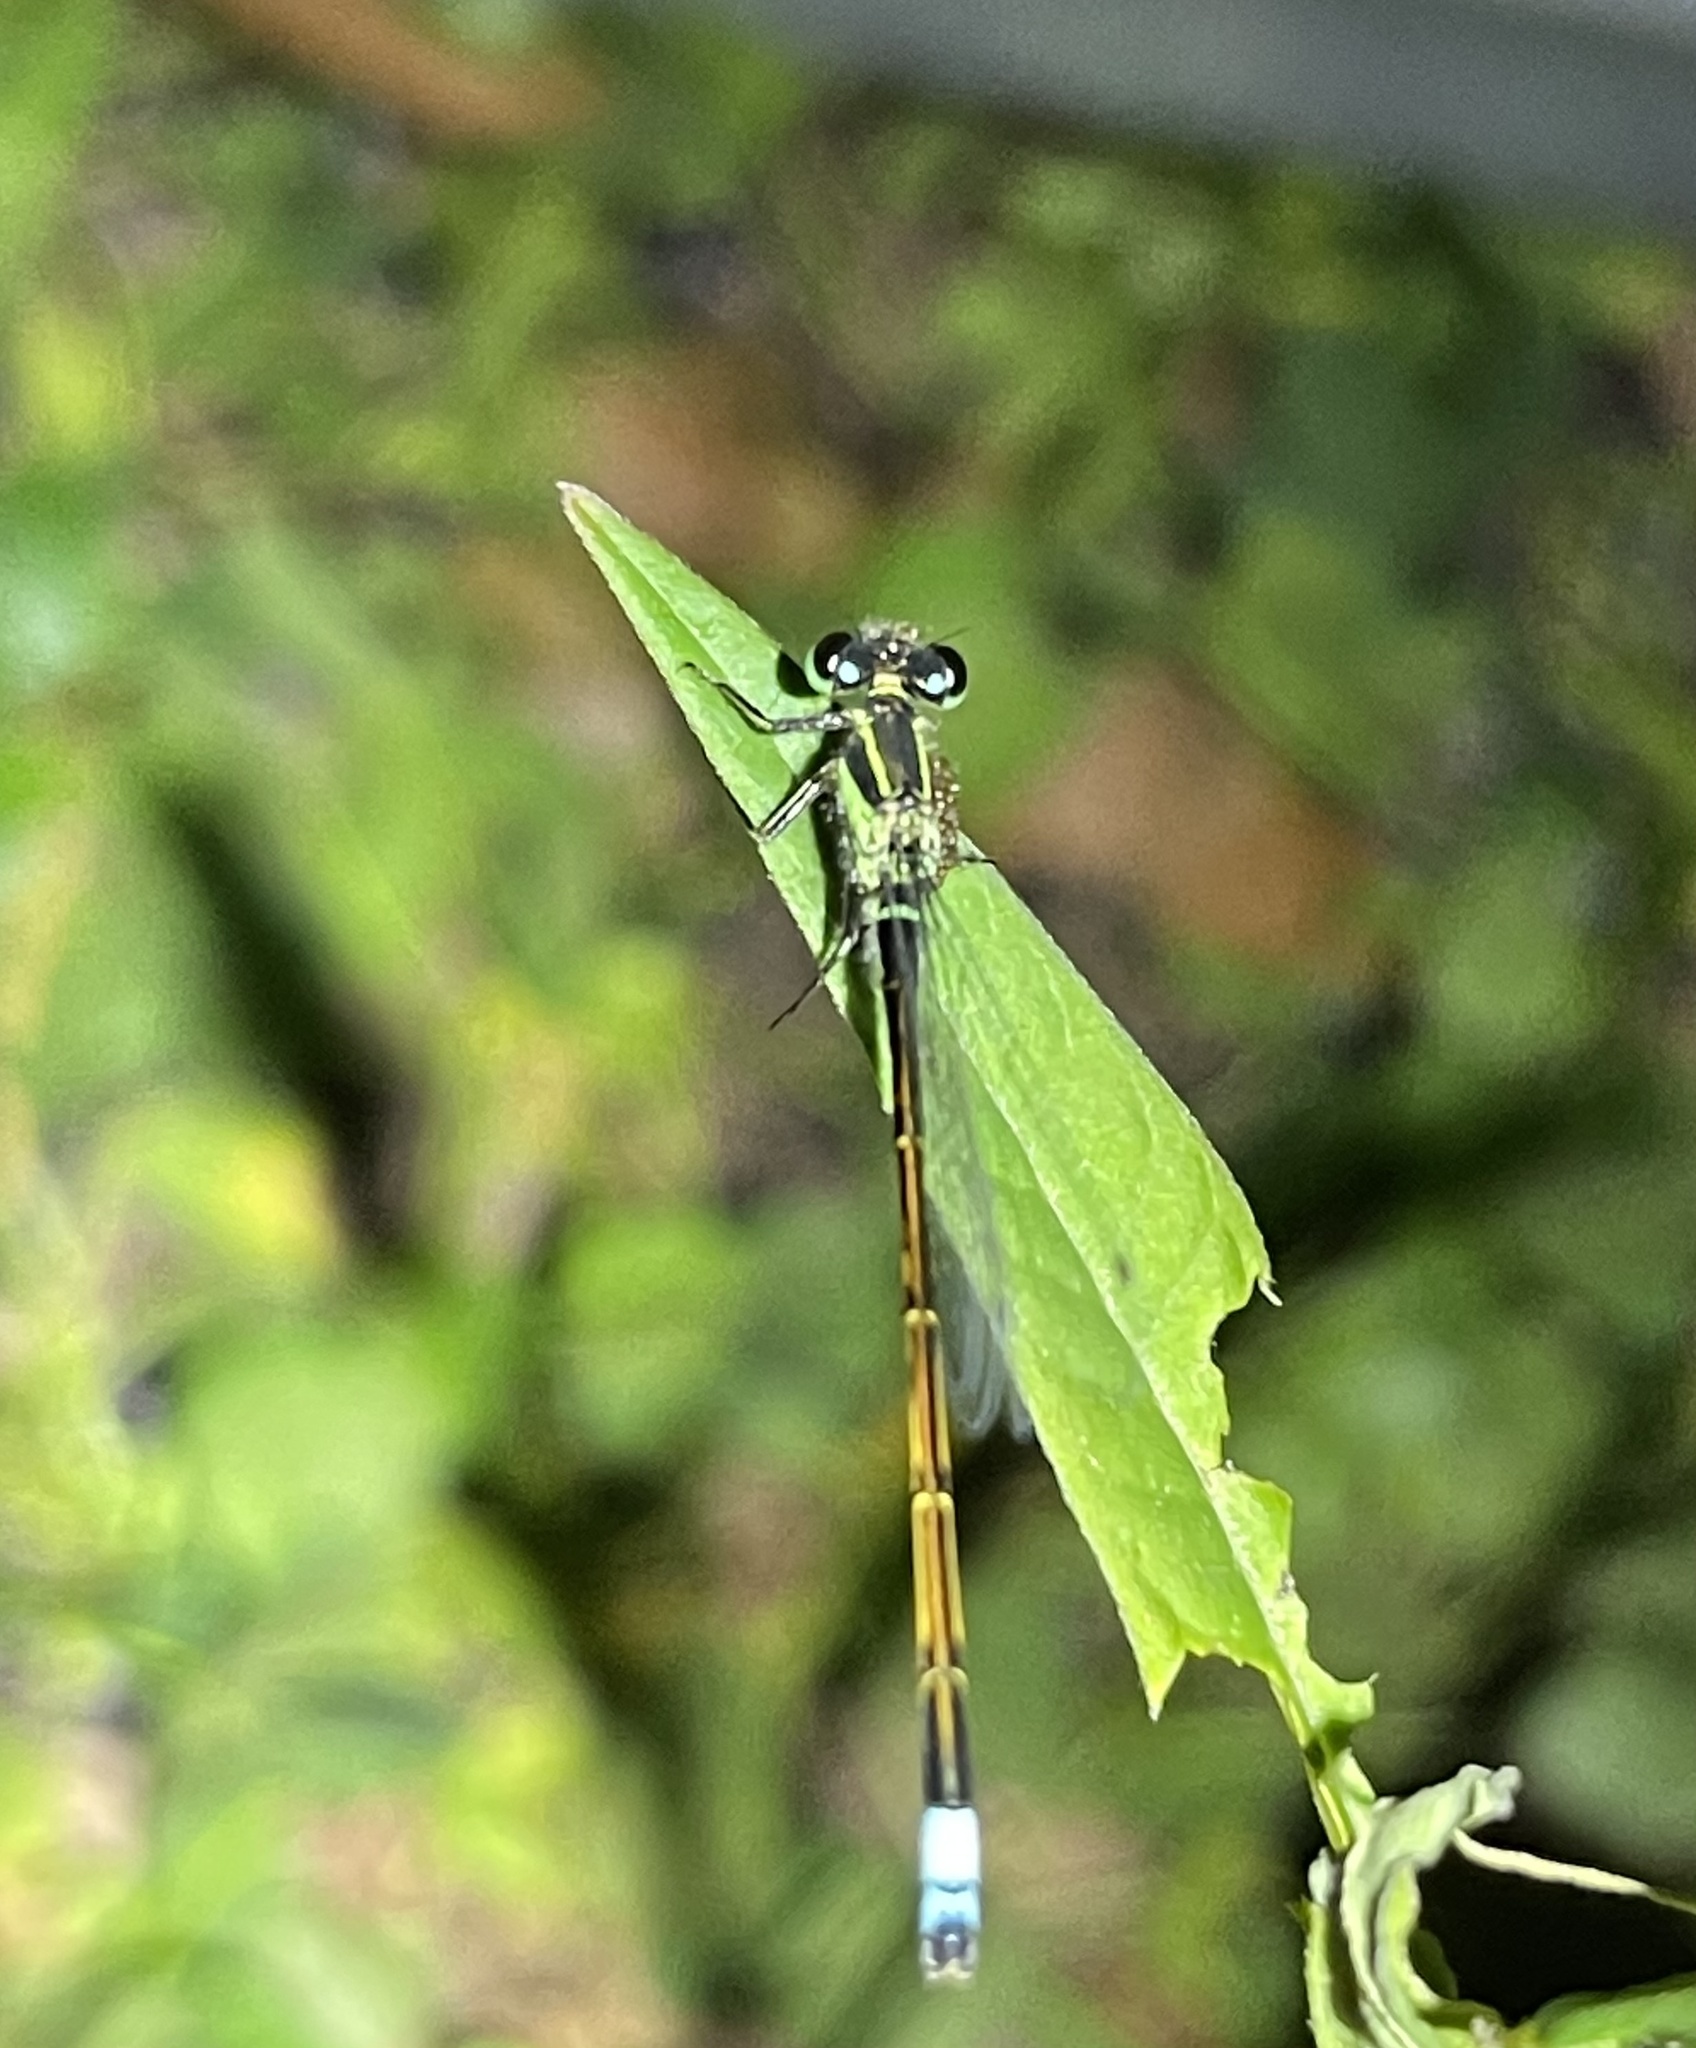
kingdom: Animalia
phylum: Arthropoda
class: Insecta
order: Odonata
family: Coenagrionidae
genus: Ischnura
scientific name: Ischnura ramburii
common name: Rambur's forktail
